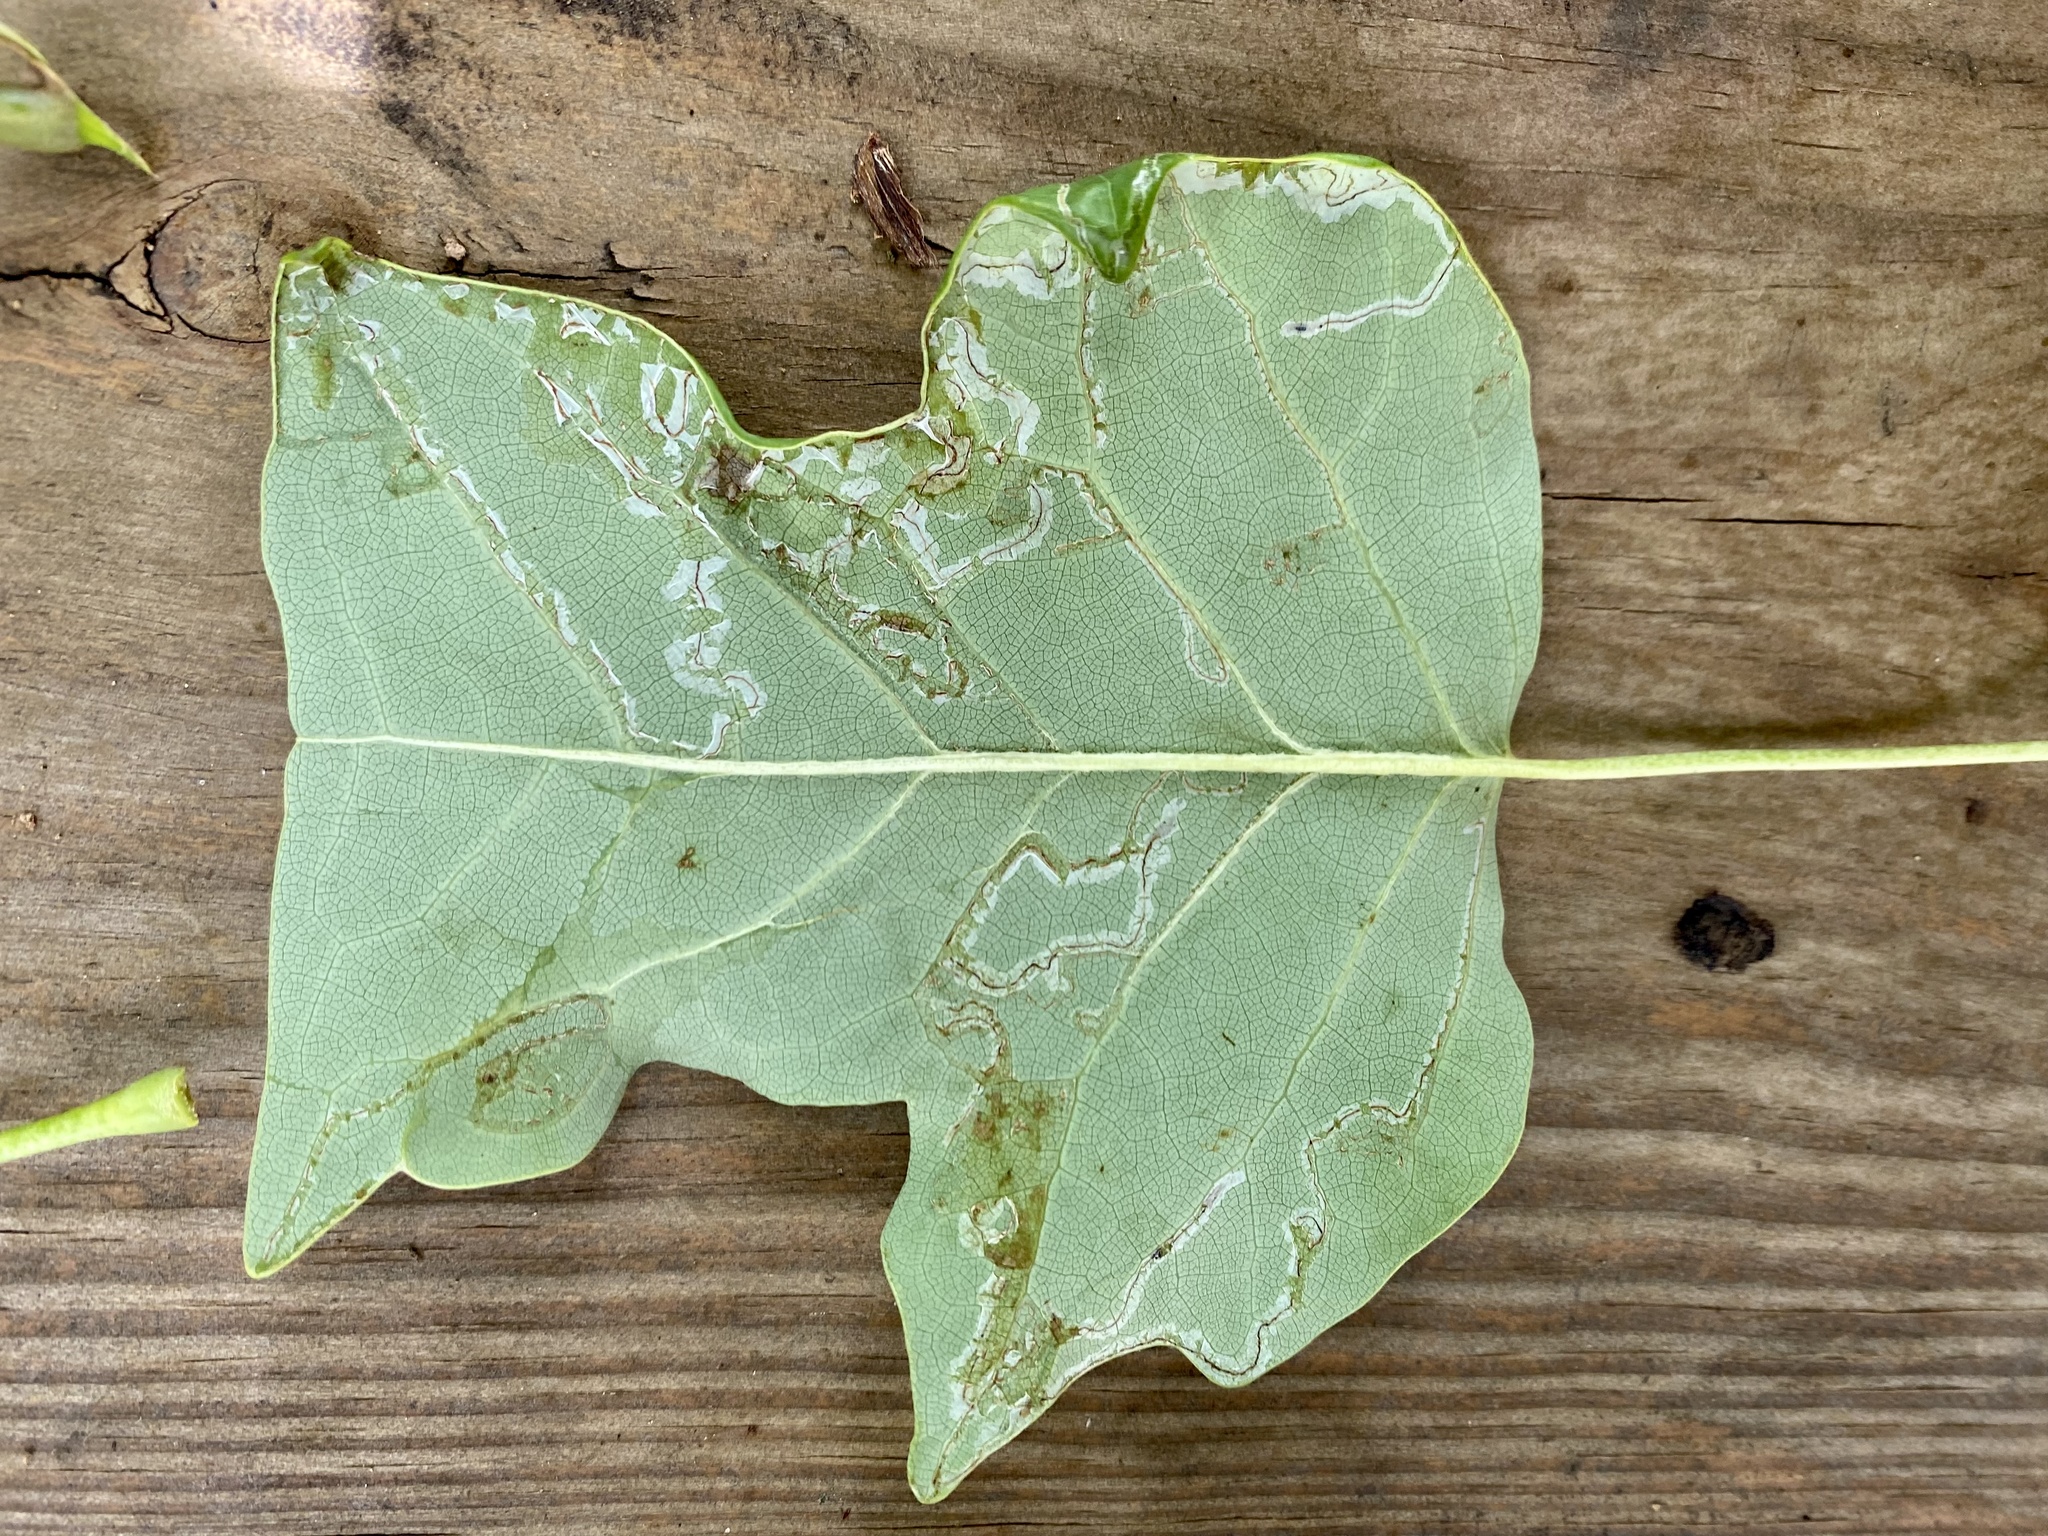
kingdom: Animalia
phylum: Arthropoda
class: Insecta
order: Lepidoptera
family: Gracillariidae
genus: Phyllocnistis
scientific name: Phyllocnistis liriodendronella
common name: Tulip tree leaf miner
